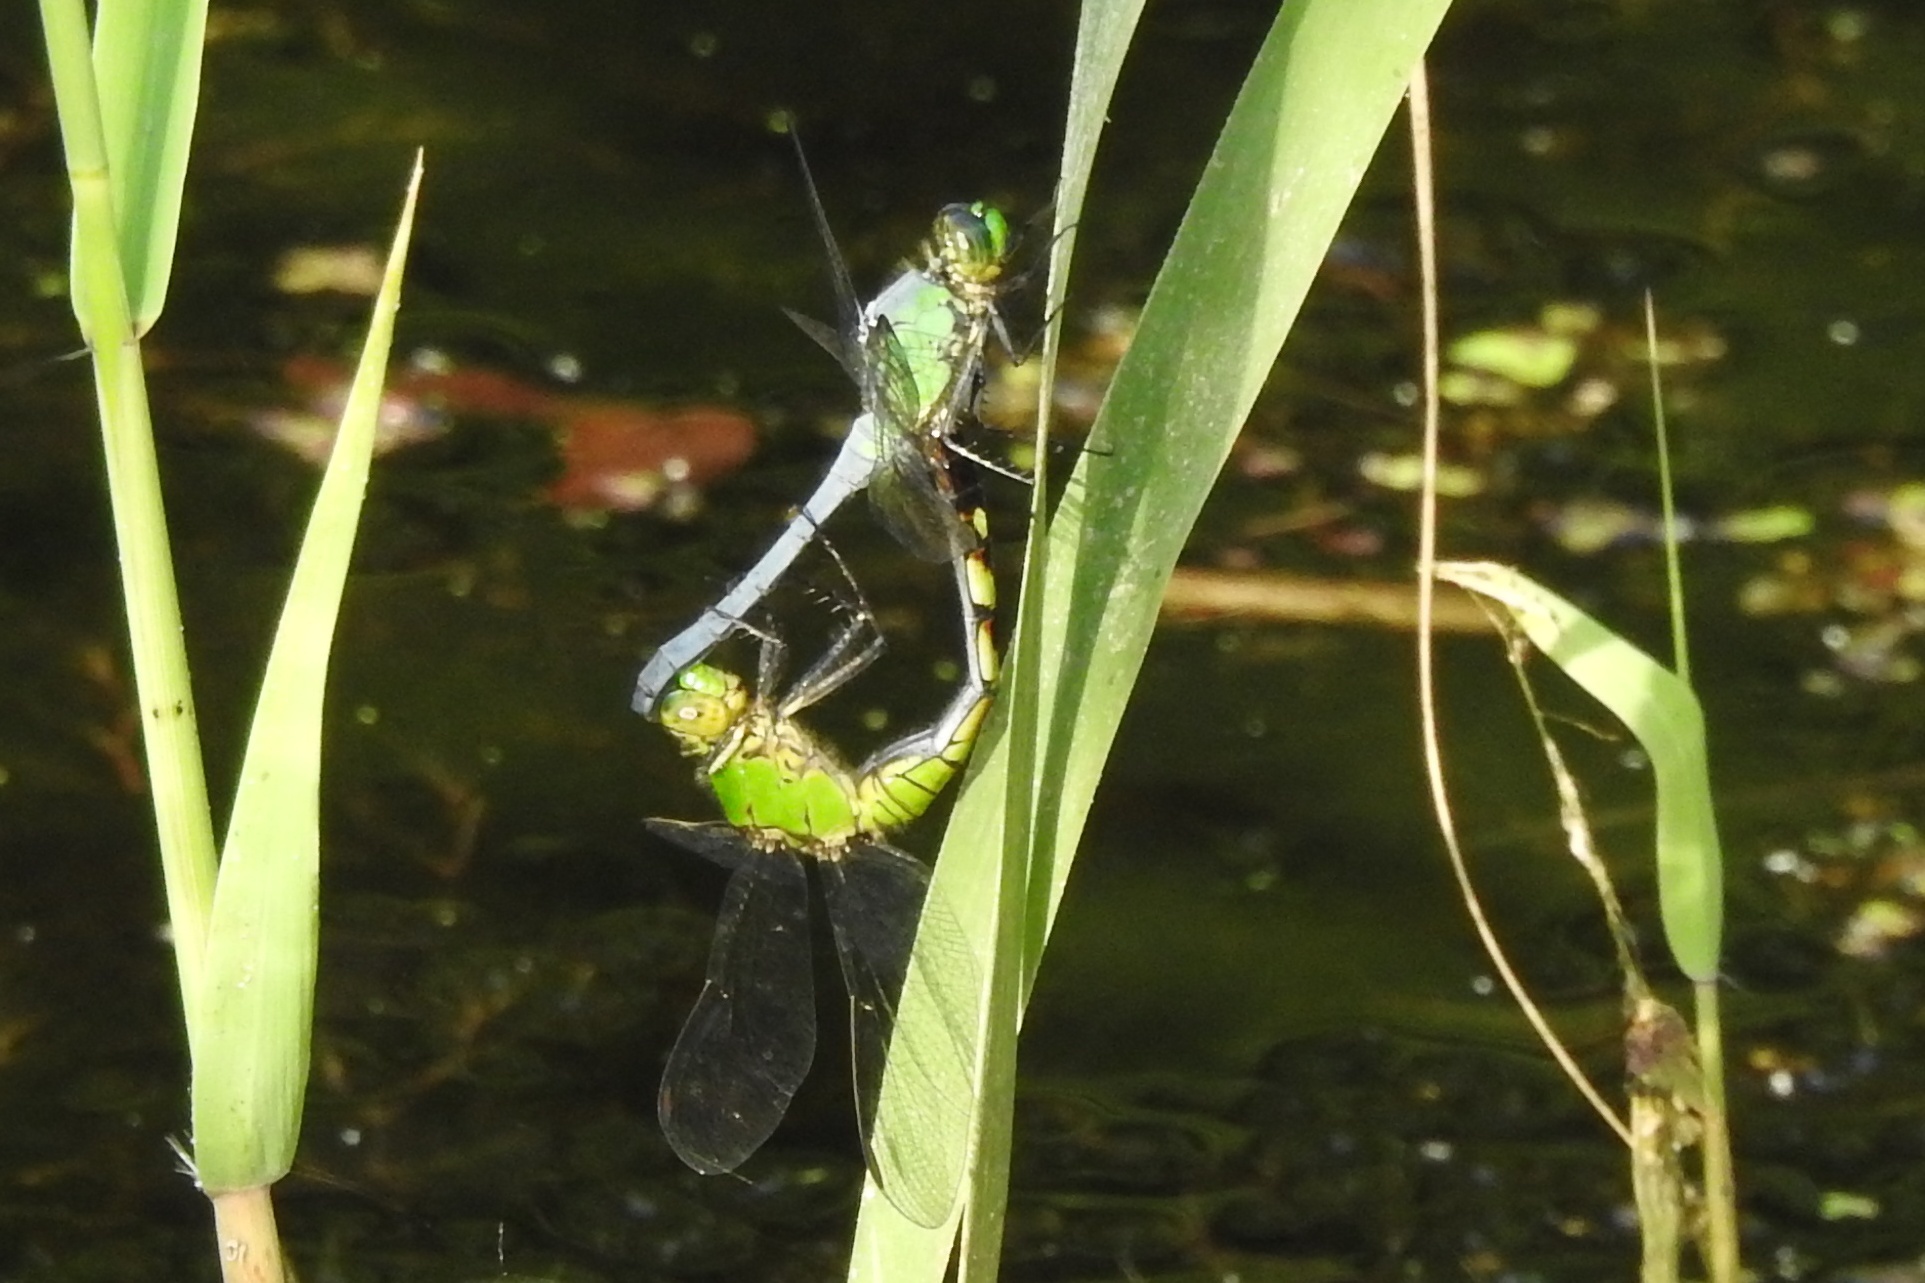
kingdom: Animalia
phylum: Arthropoda
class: Insecta
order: Odonata
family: Libellulidae
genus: Erythemis
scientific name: Erythemis simplicicollis
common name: Eastern pondhawk
